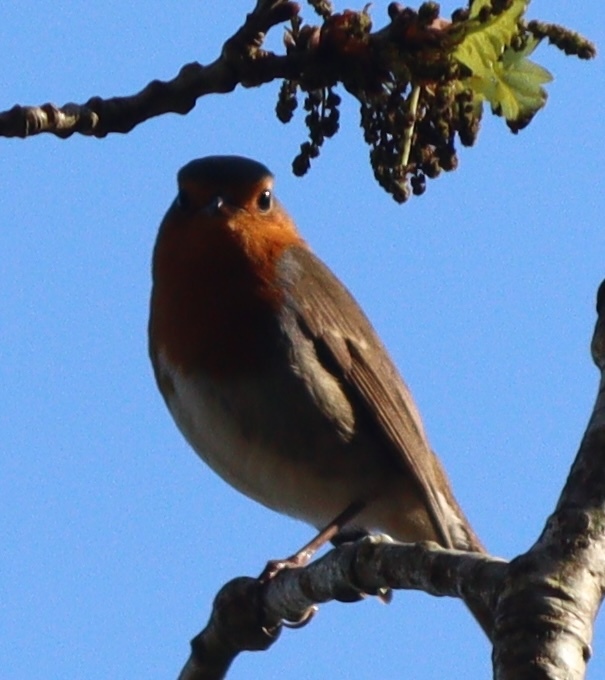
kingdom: Animalia
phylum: Chordata
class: Aves
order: Passeriformes
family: Muscicapidae
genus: Erithacus
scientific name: Erithacus rubecula
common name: European robin
